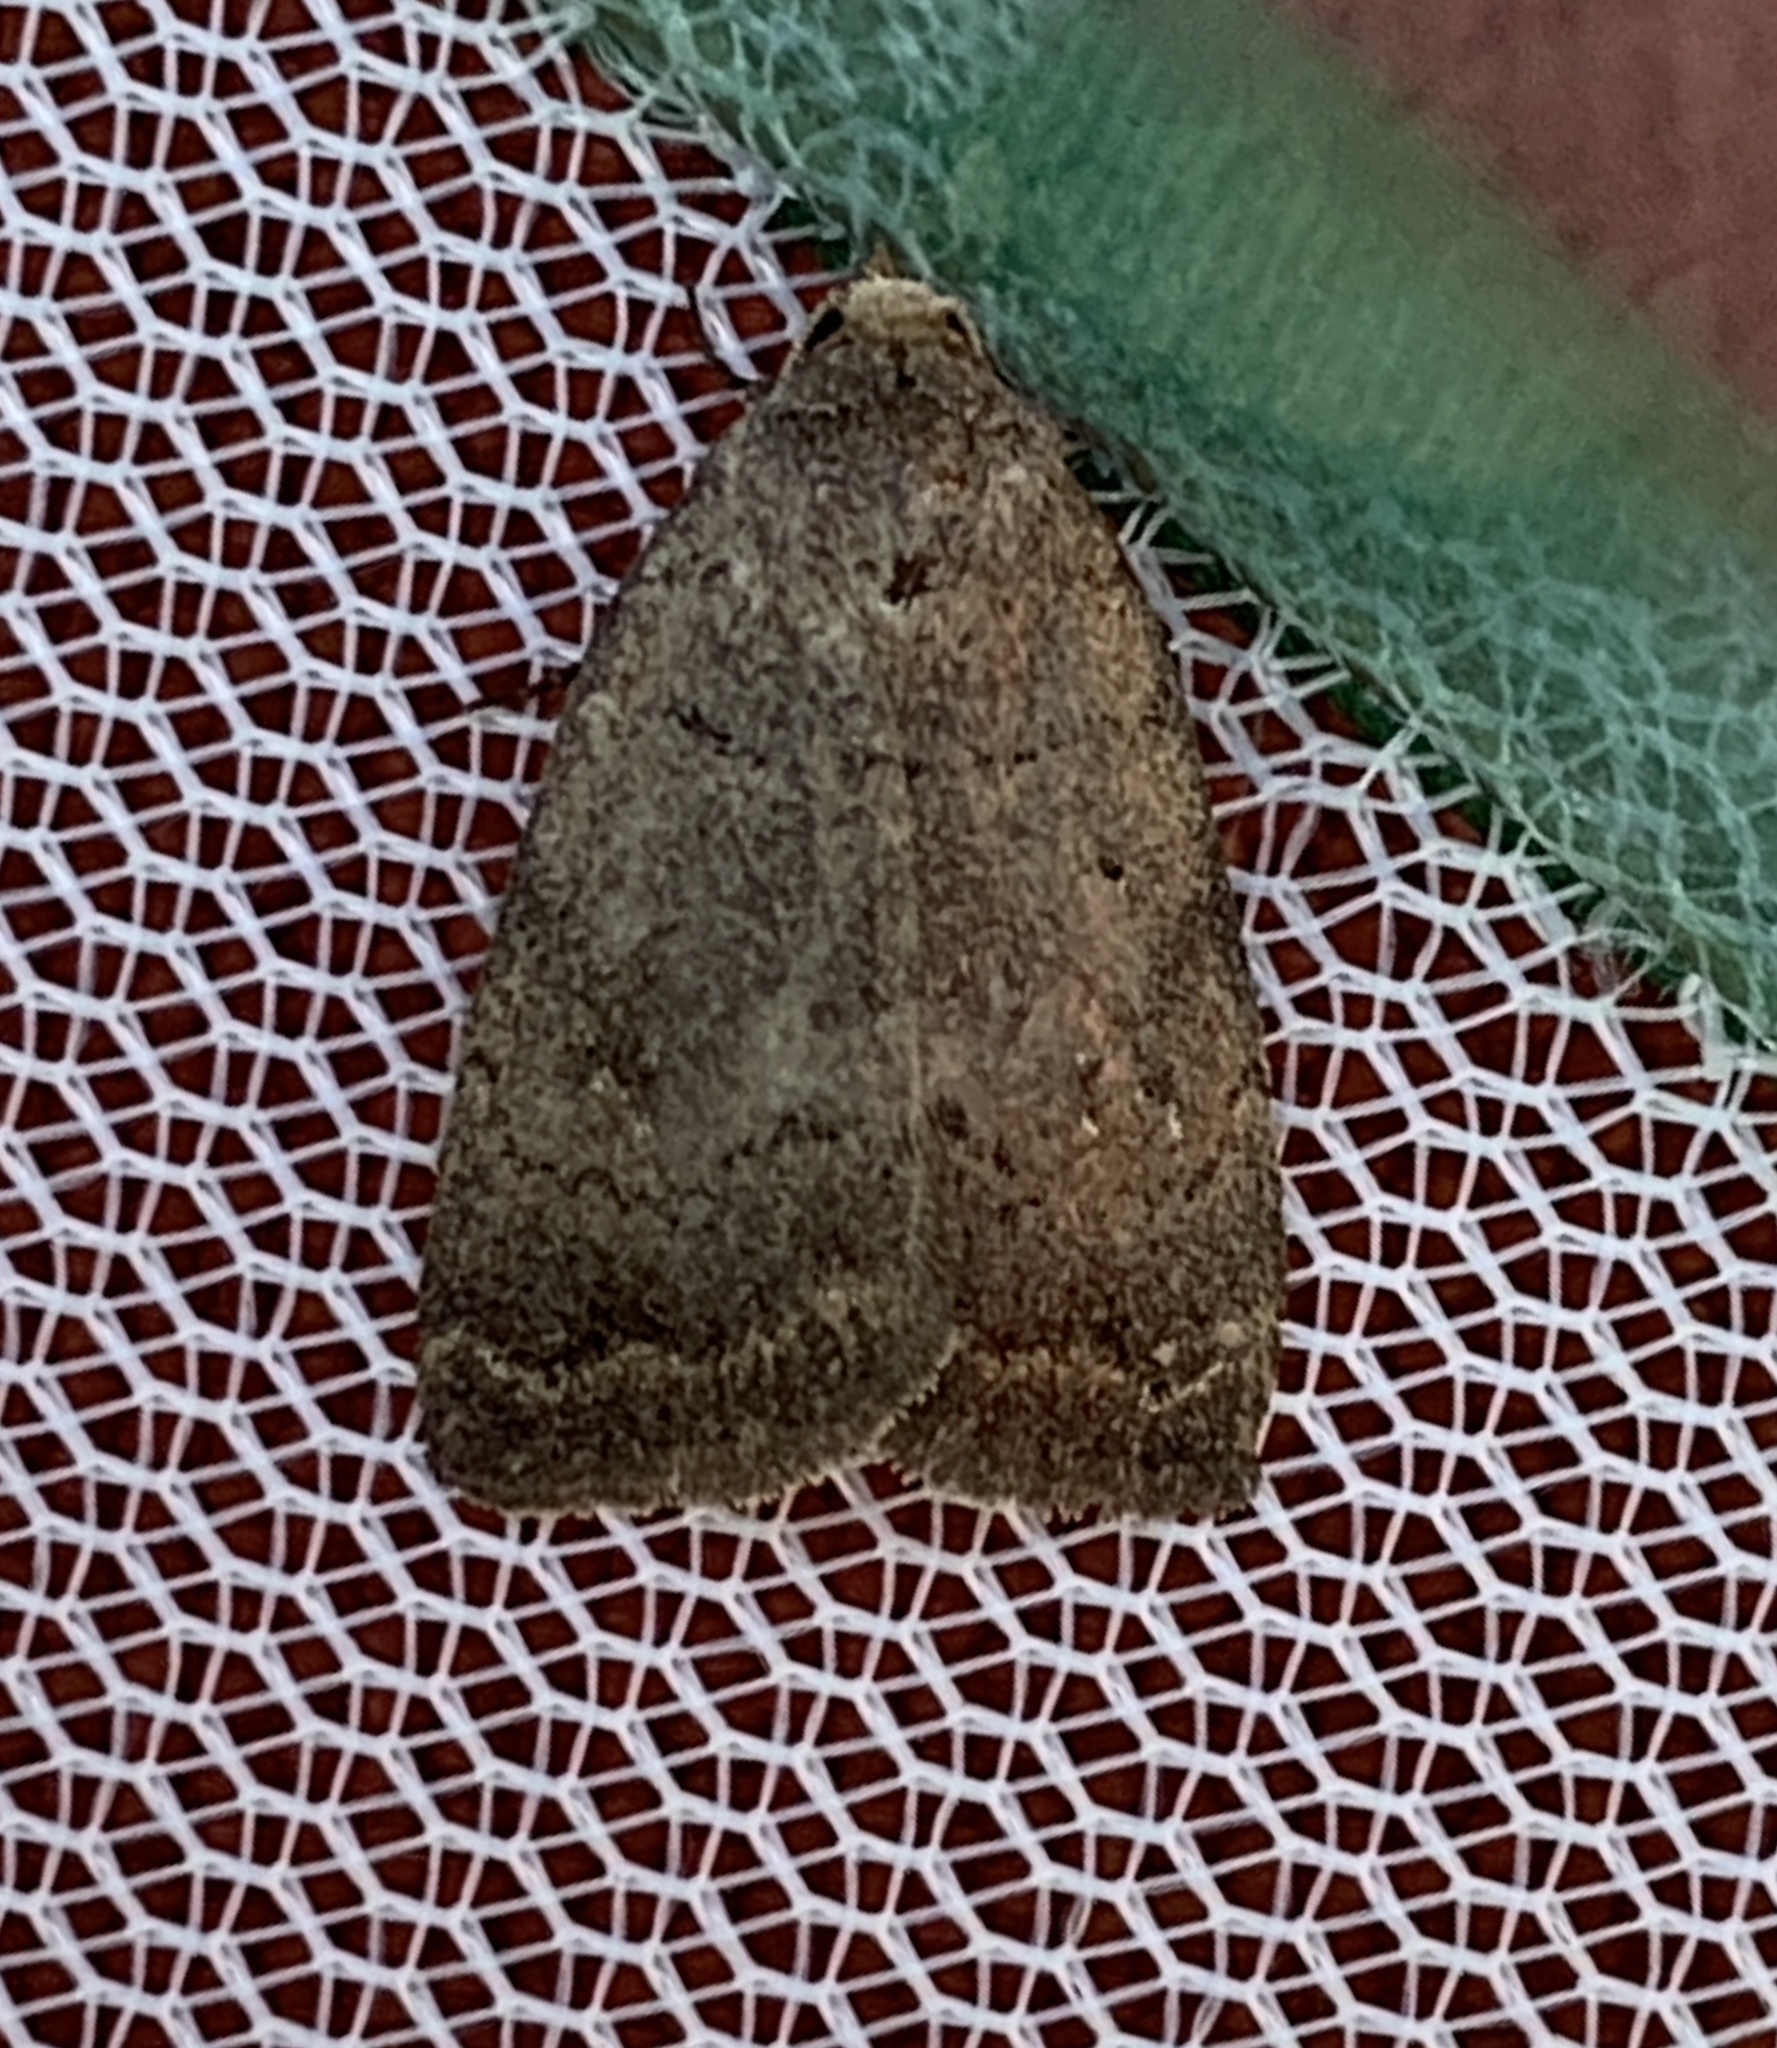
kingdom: Animalia
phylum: Arthropoda
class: Insecta
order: Lepidoptera
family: Noctuidae
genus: Athetis
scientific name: Athetis tarda
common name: Slowpoke moth
